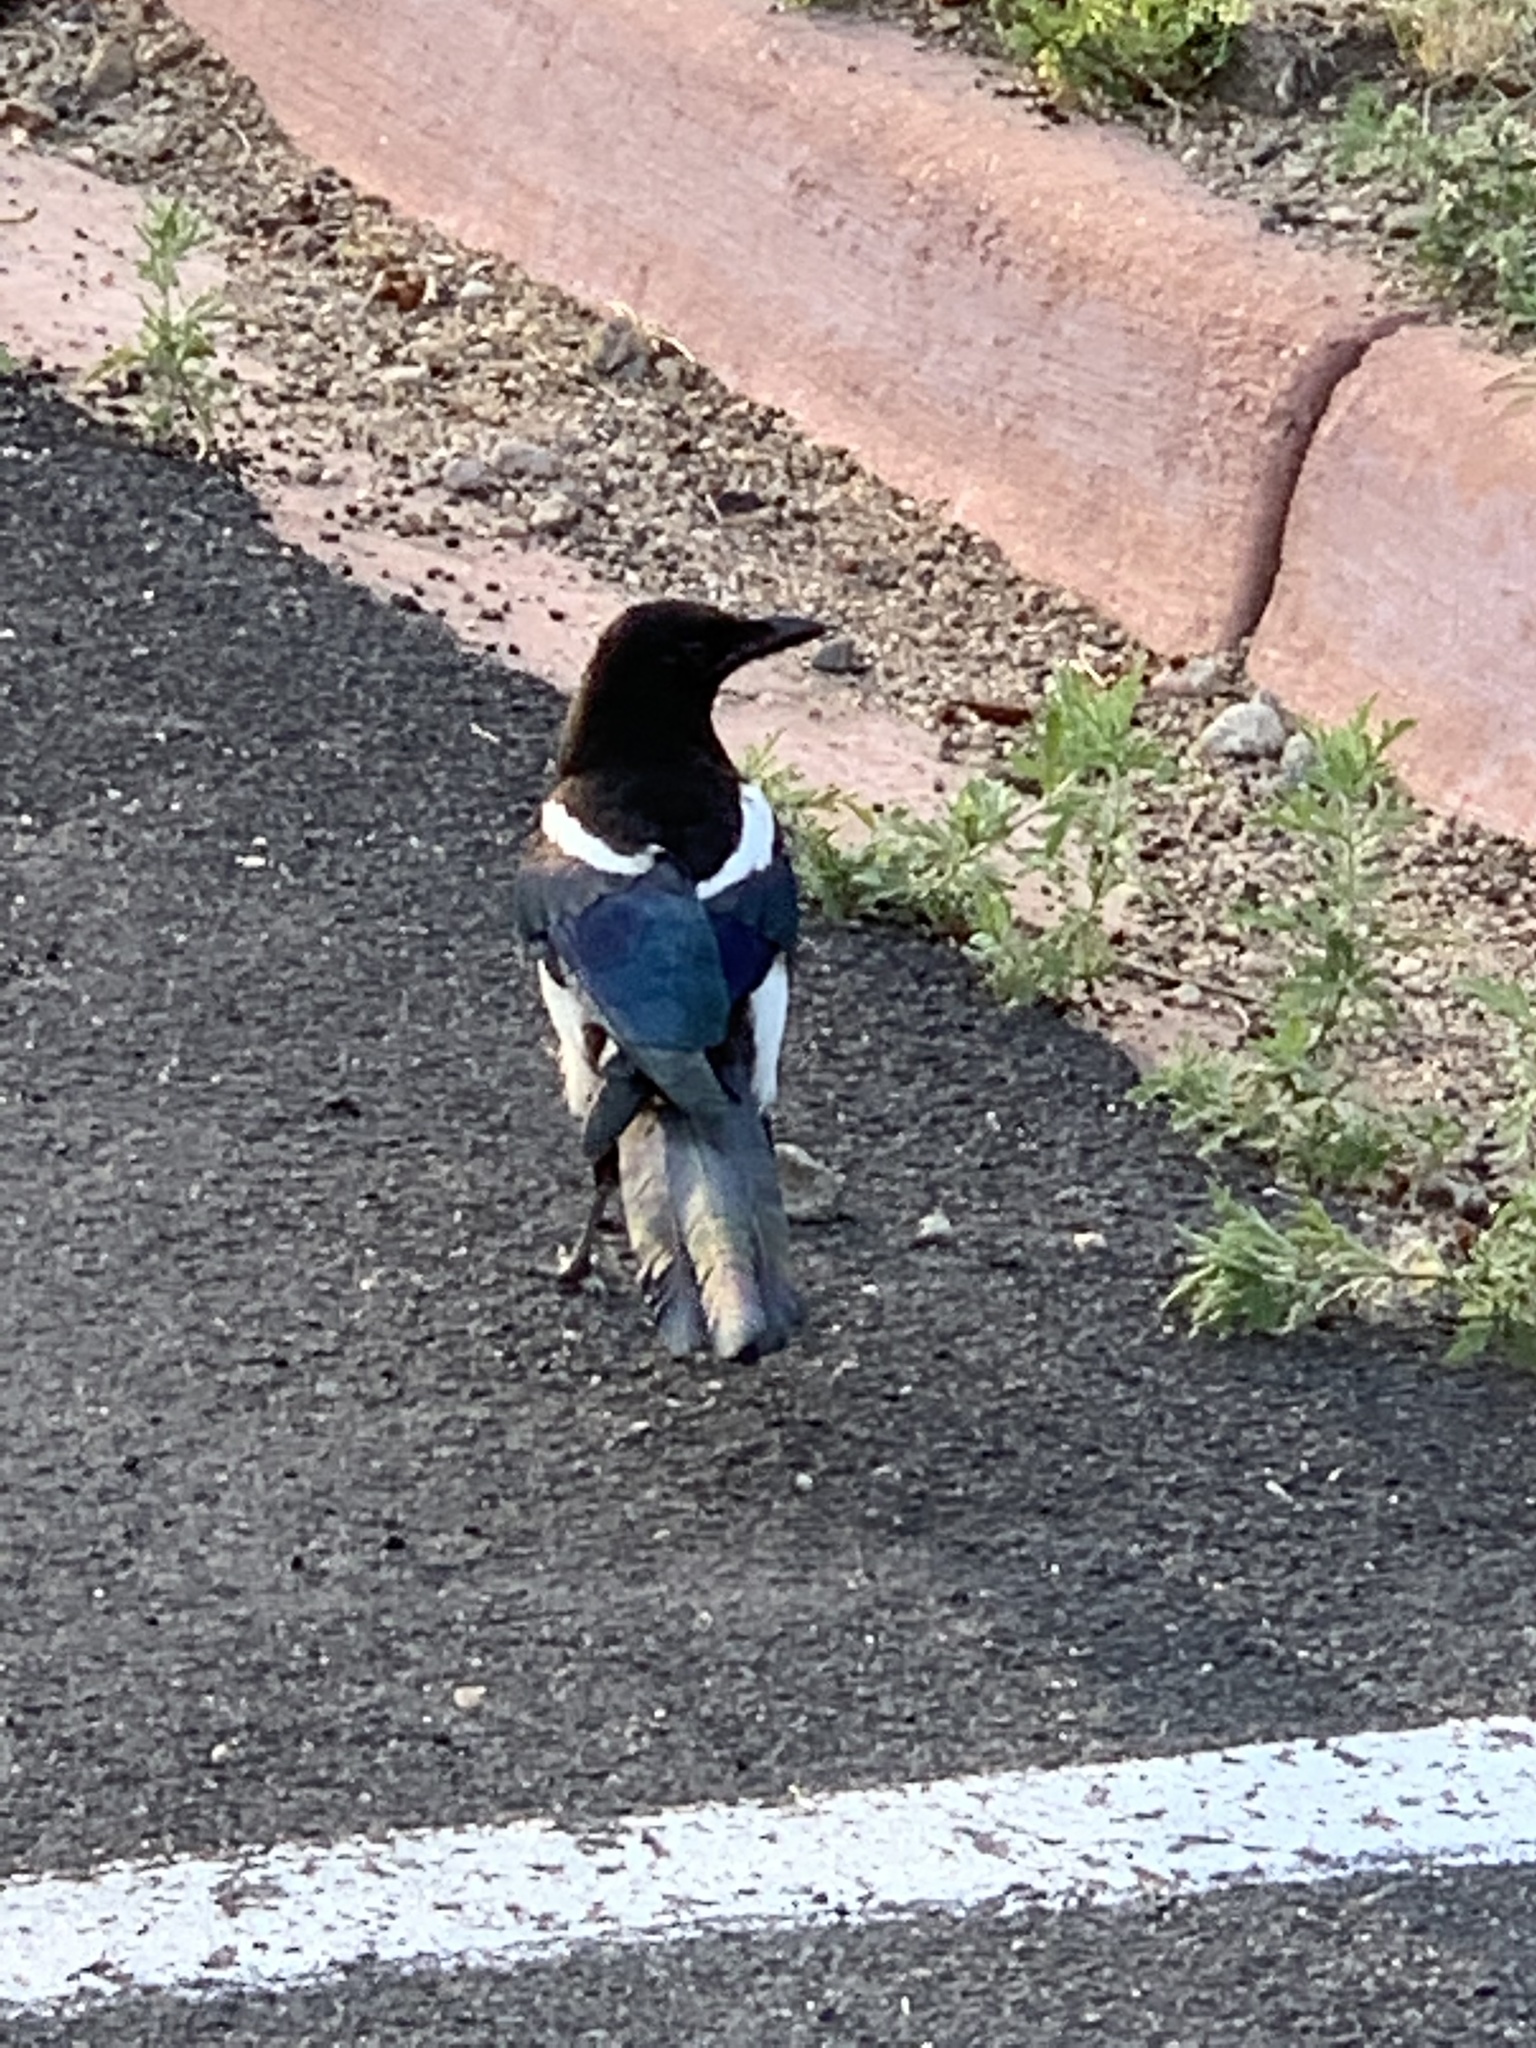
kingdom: Animalia
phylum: Chordata
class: Aves
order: Passeriformes
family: Corvidae
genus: Pica
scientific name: Pica hudsonia
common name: Black-billed magpie
